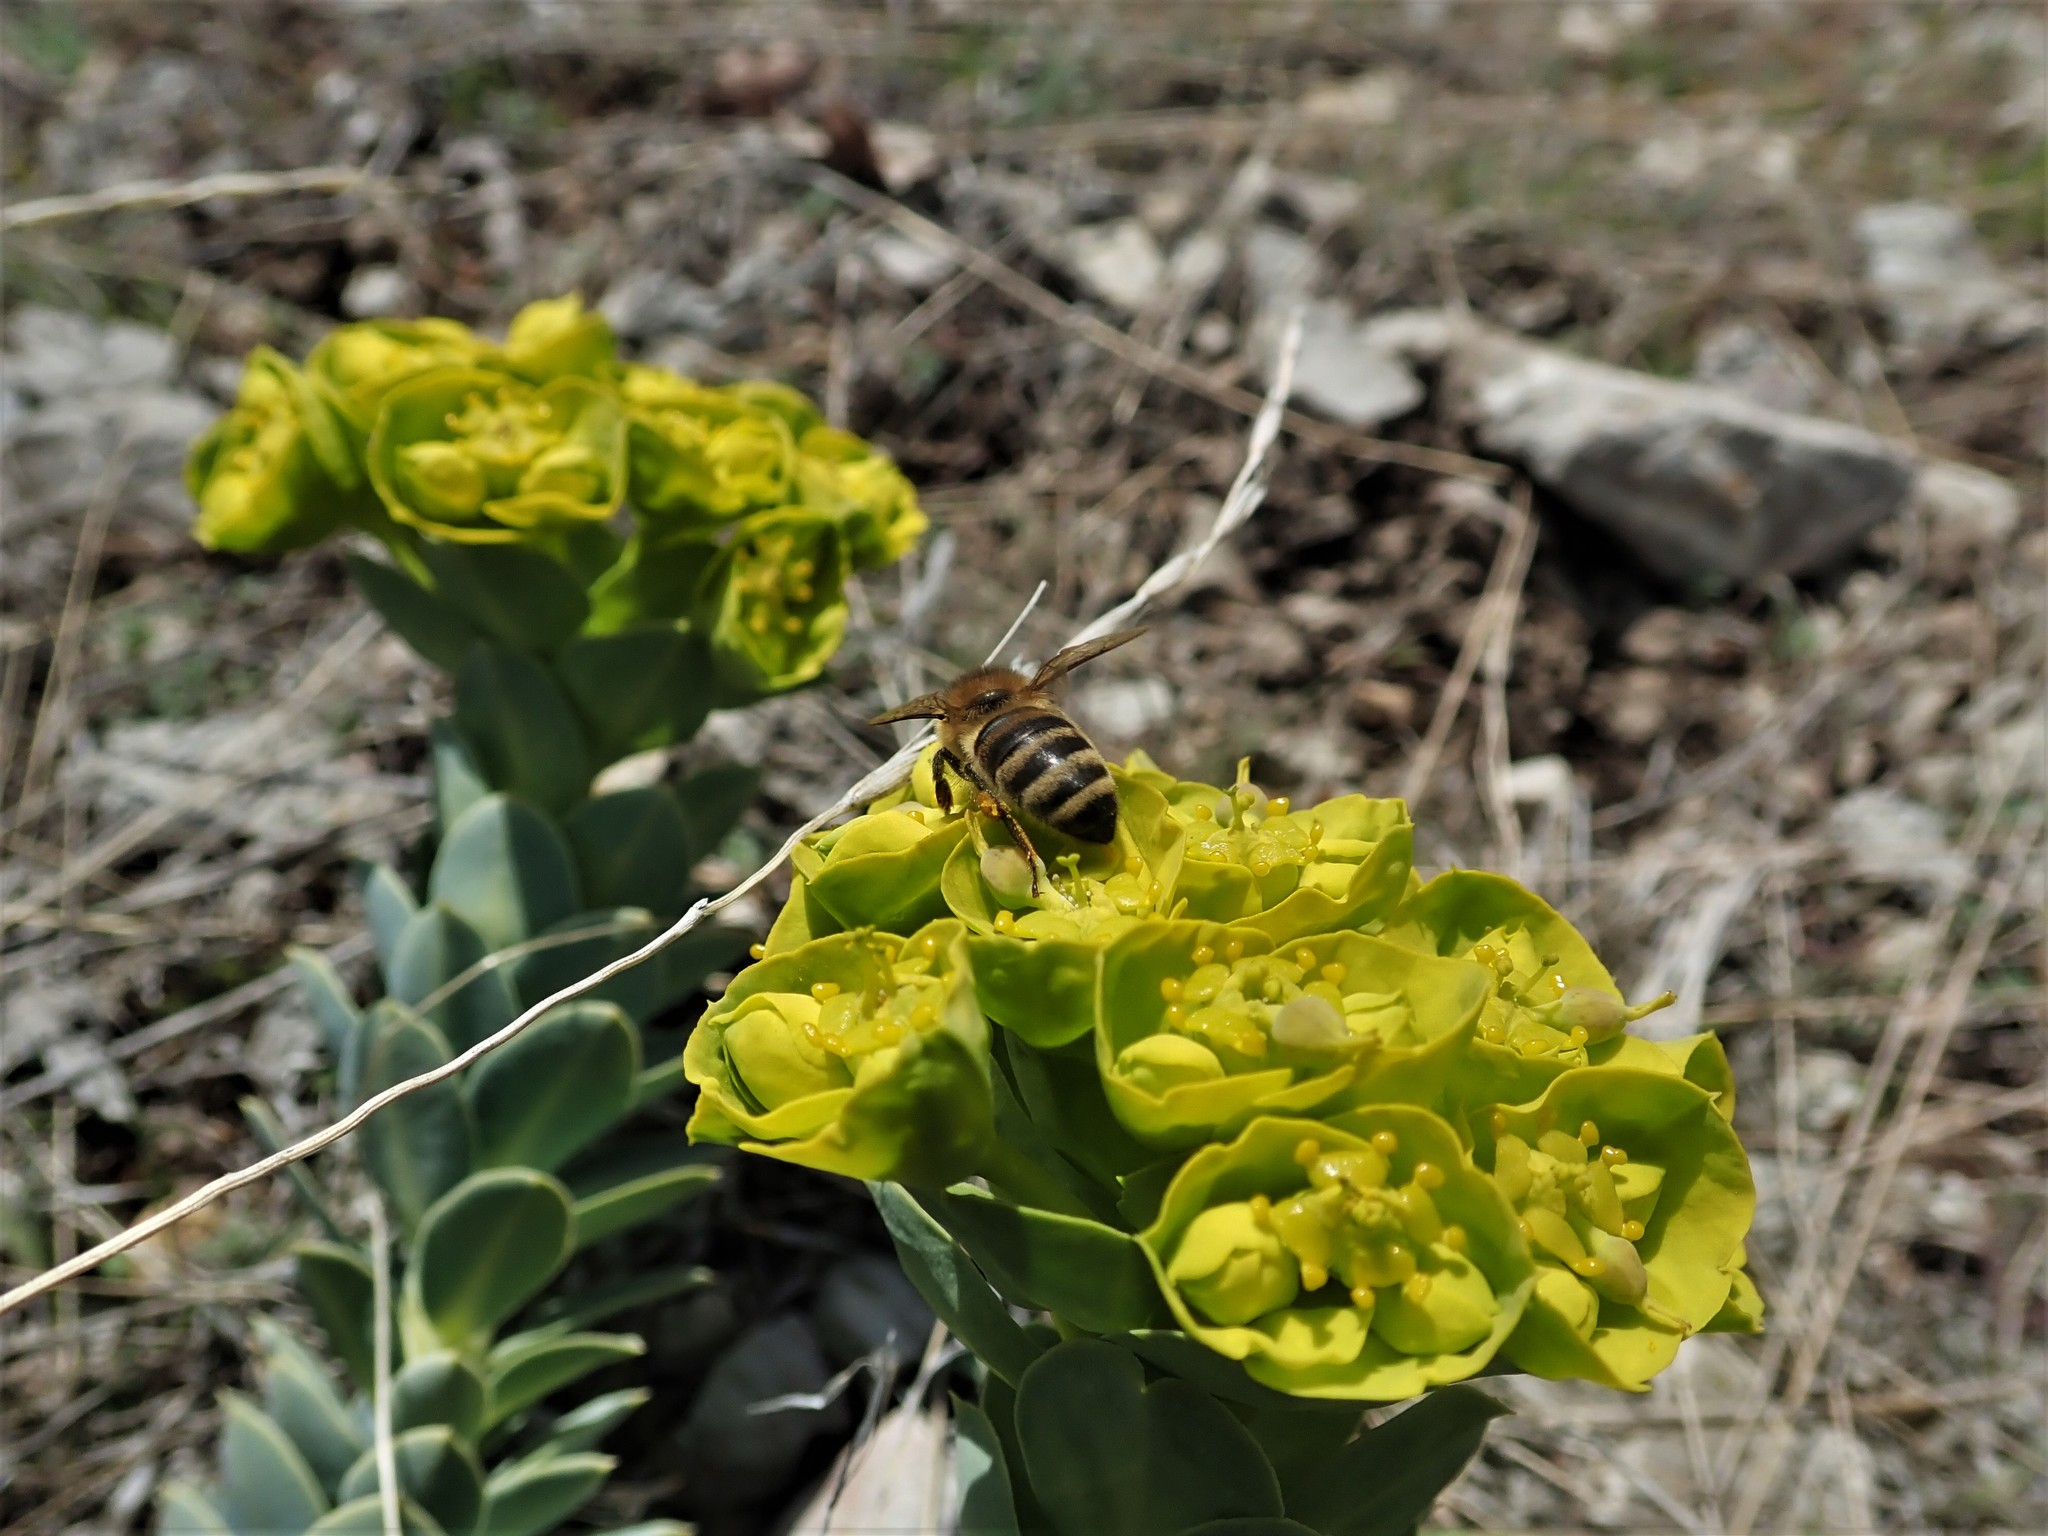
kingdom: Animalia
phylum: Arthropoda
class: Insecta
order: Hymenoptera
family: Apidae
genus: Apis
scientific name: Apis mellifera
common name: Honey bee
